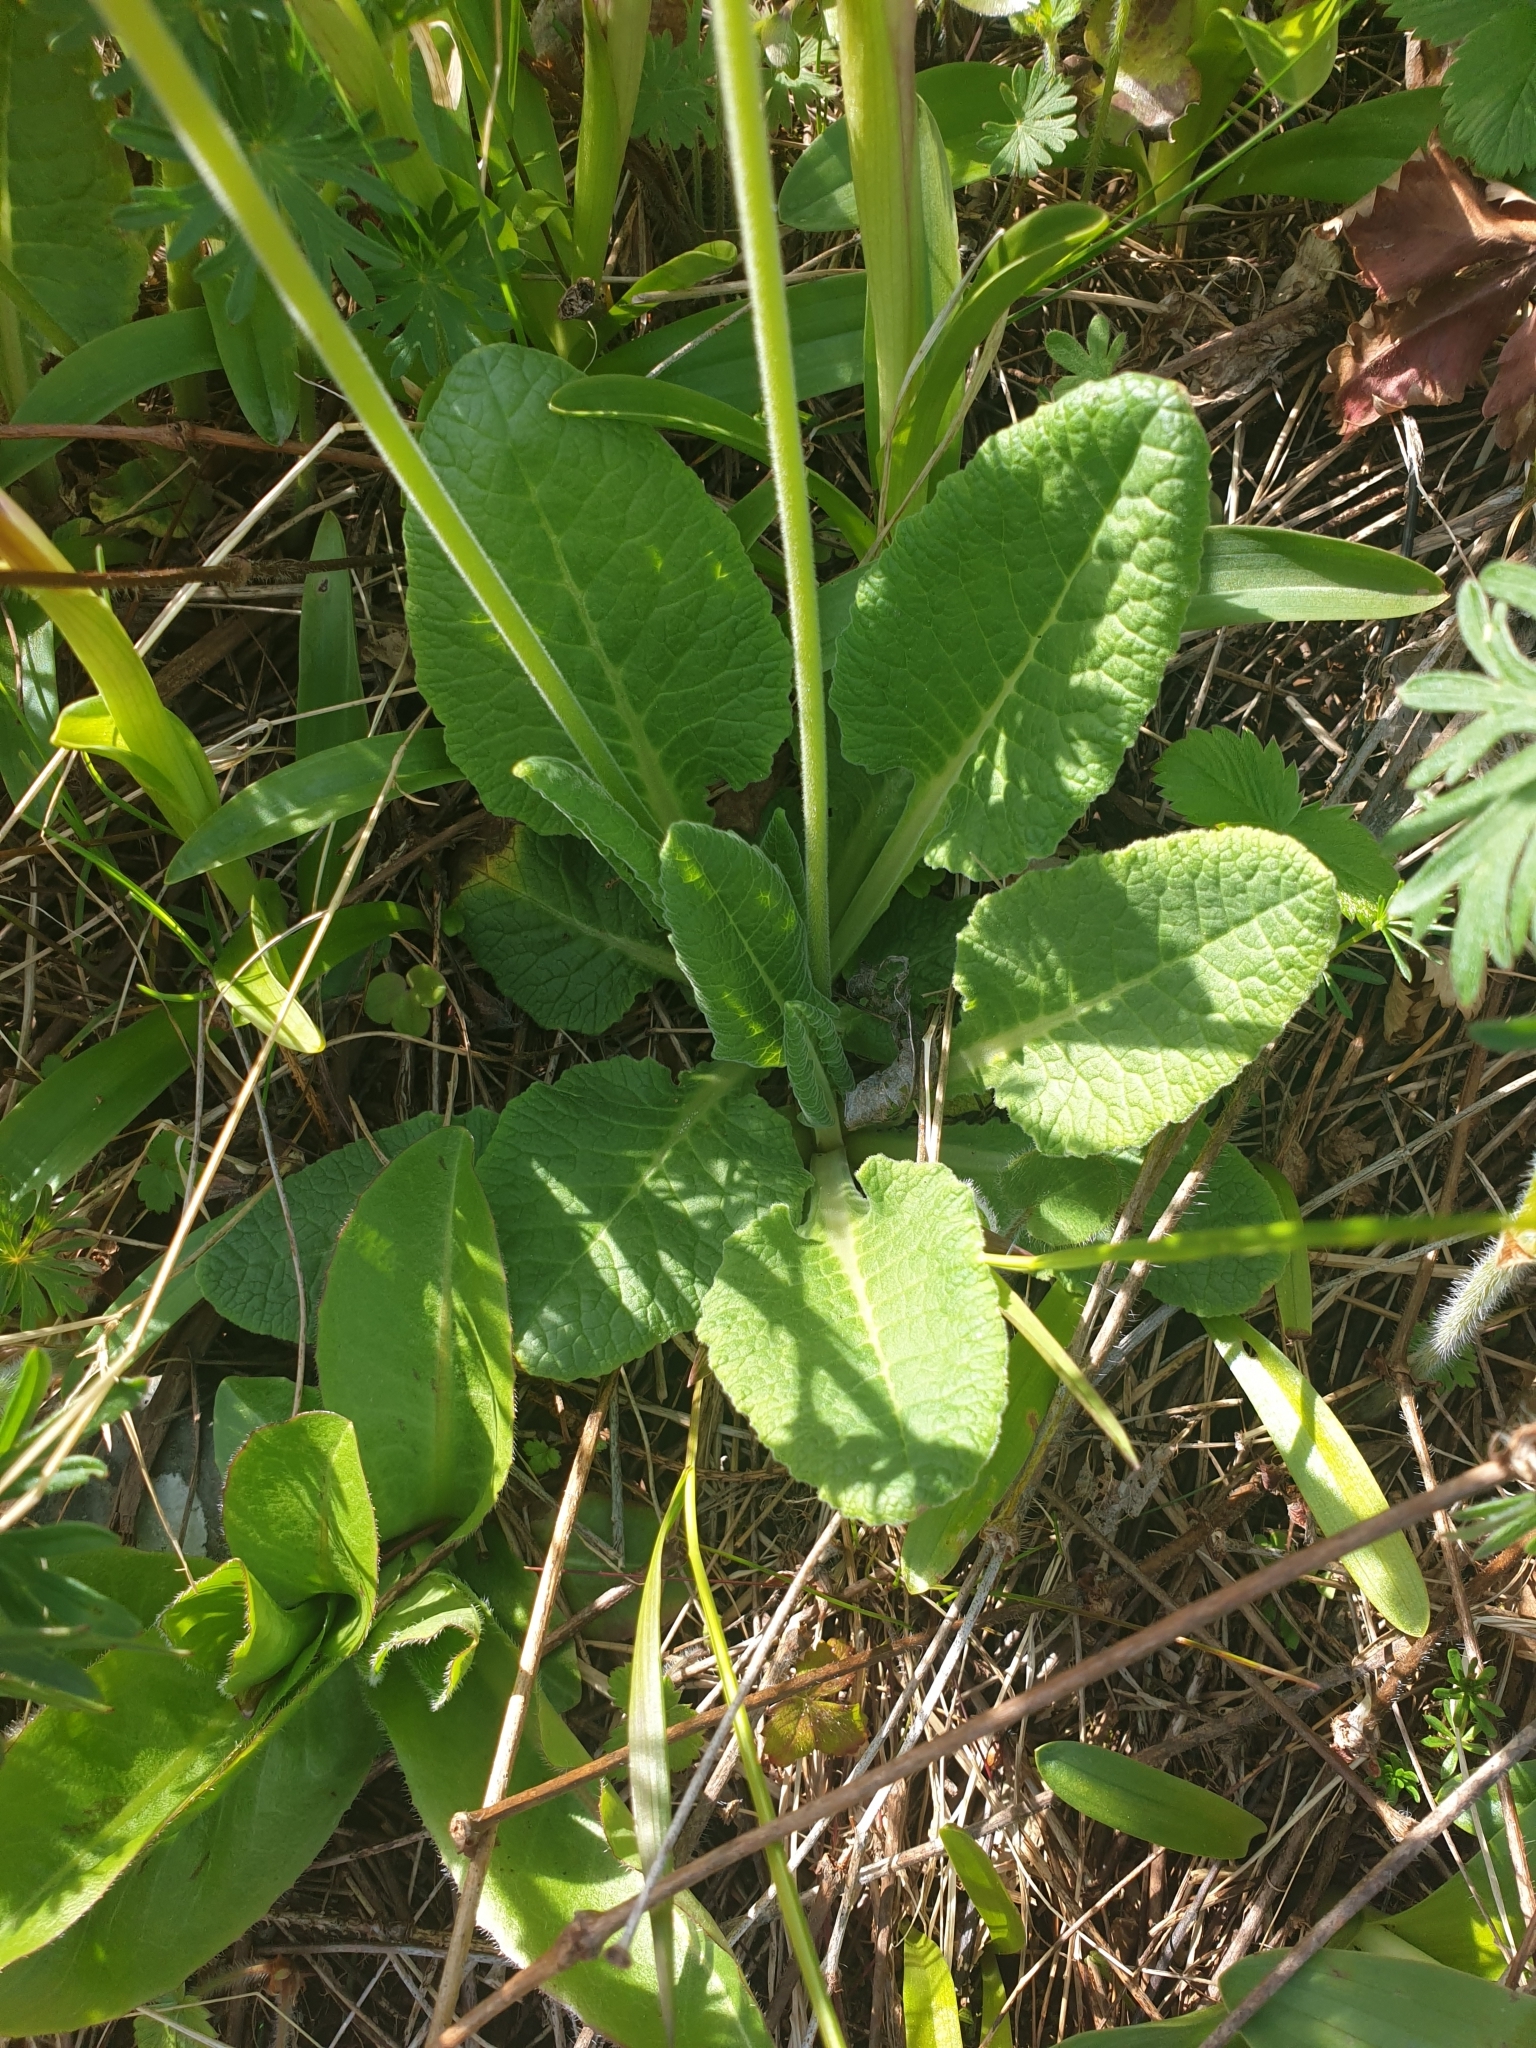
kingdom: Plantae
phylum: Tracheophyta
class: Magnoliopsida
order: Ericales
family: Primulaceae
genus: Primula
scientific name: Primula veris
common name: Cowslip
